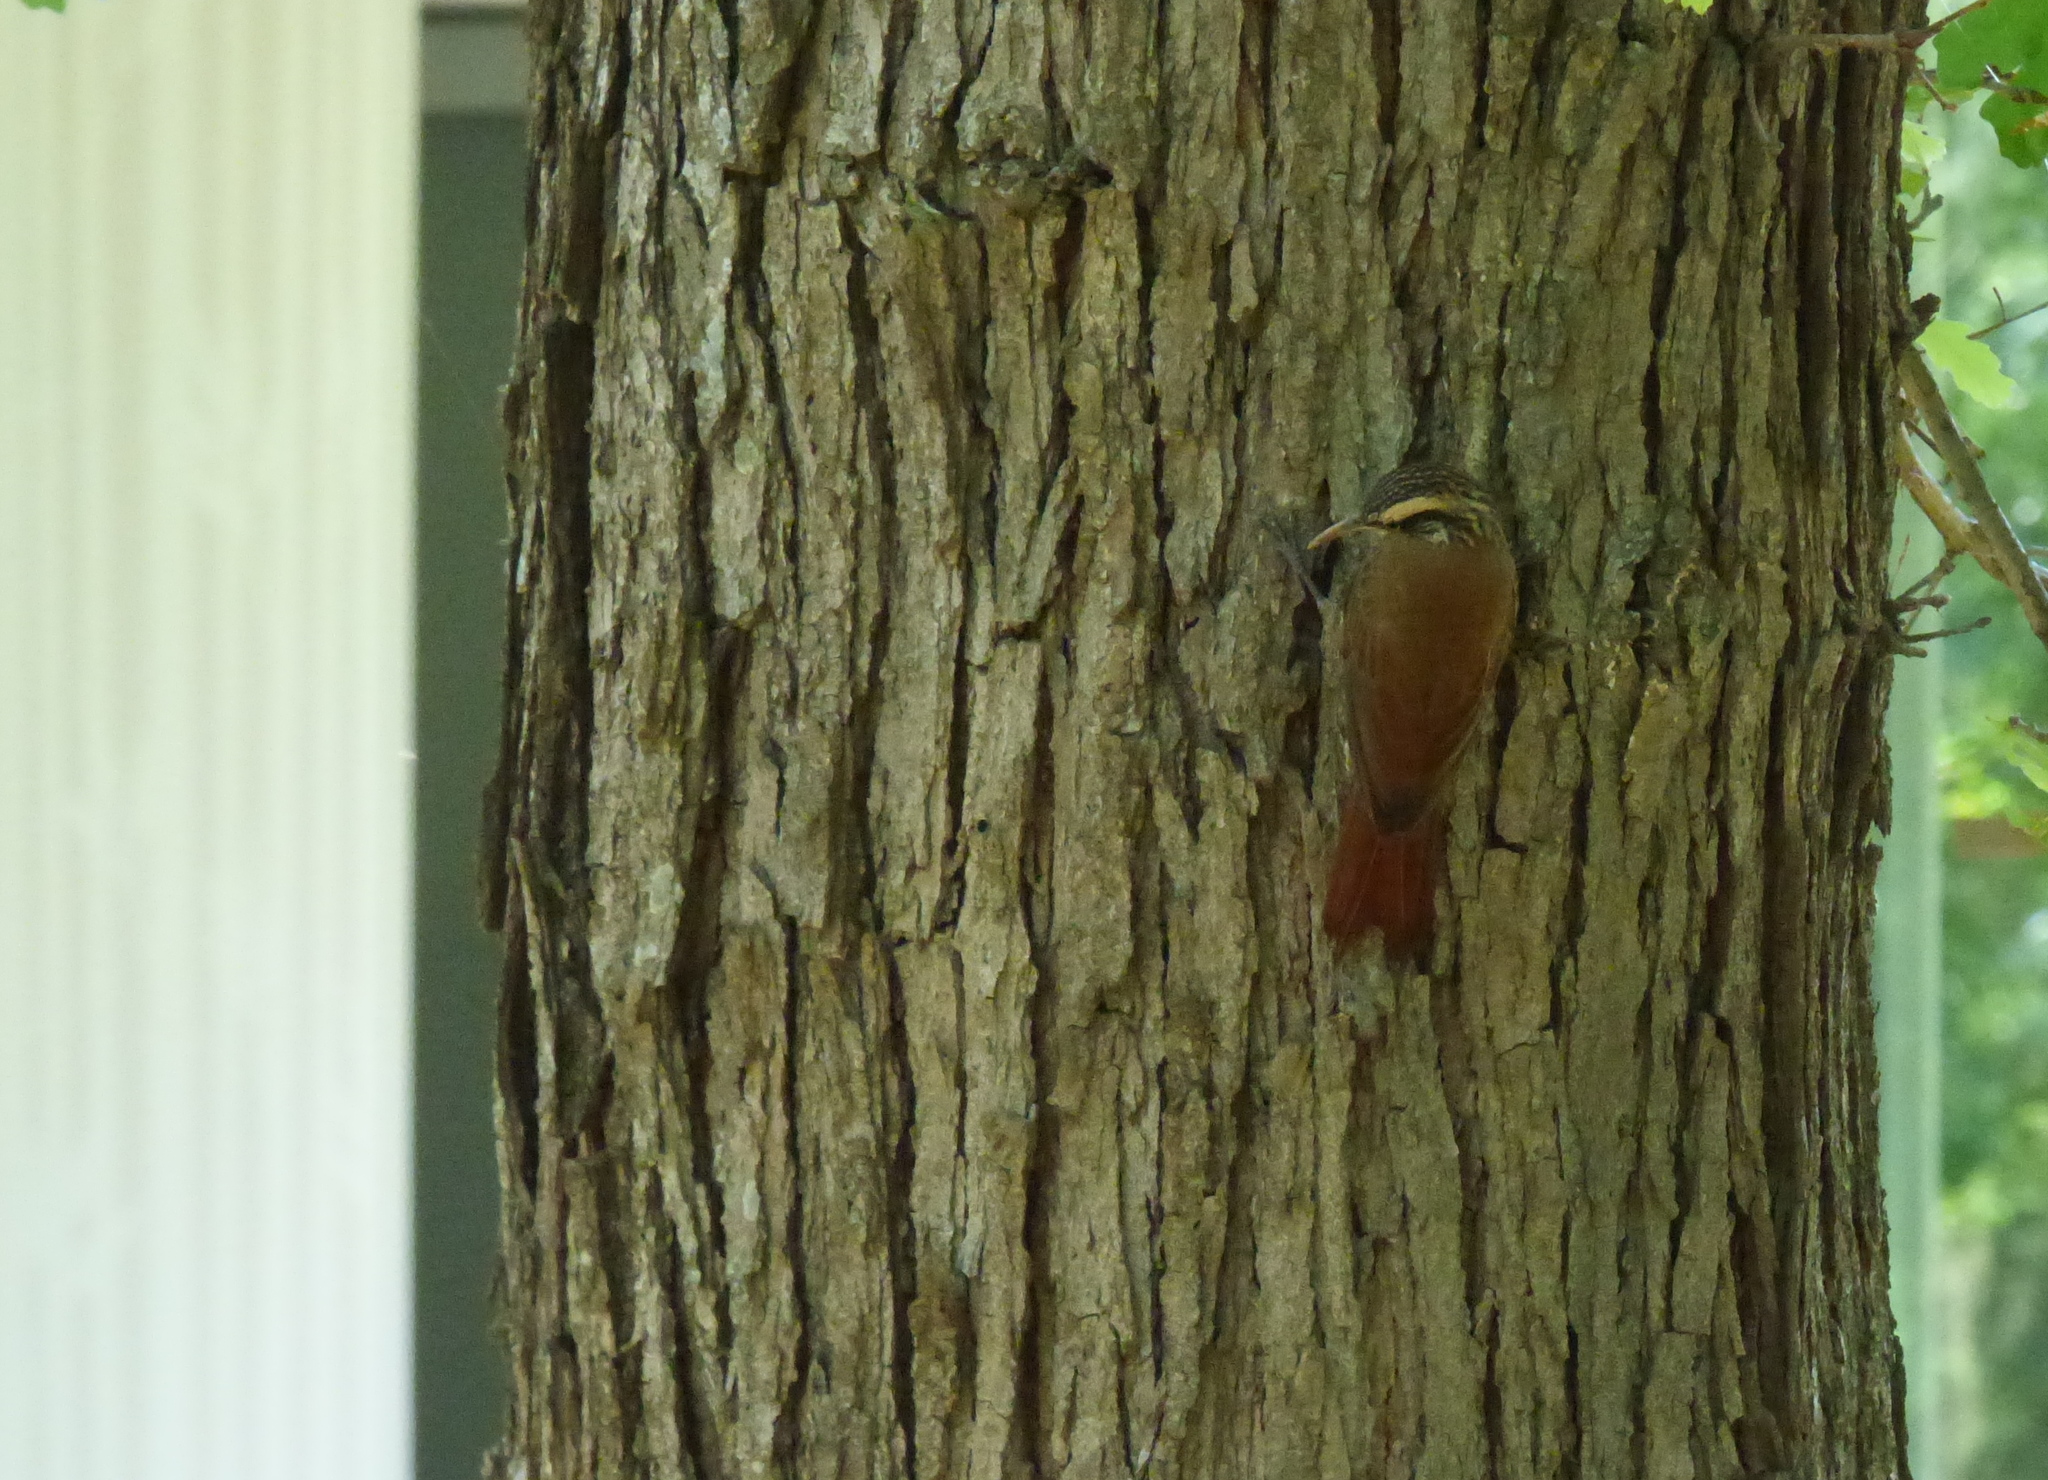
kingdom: Animalia
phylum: Chordata
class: Aves
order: Passeriformes
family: Furnariidae
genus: Lepidocolaptes
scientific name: Lepidocolaptes angustirostris
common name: Narrow-billed woodcreeper
